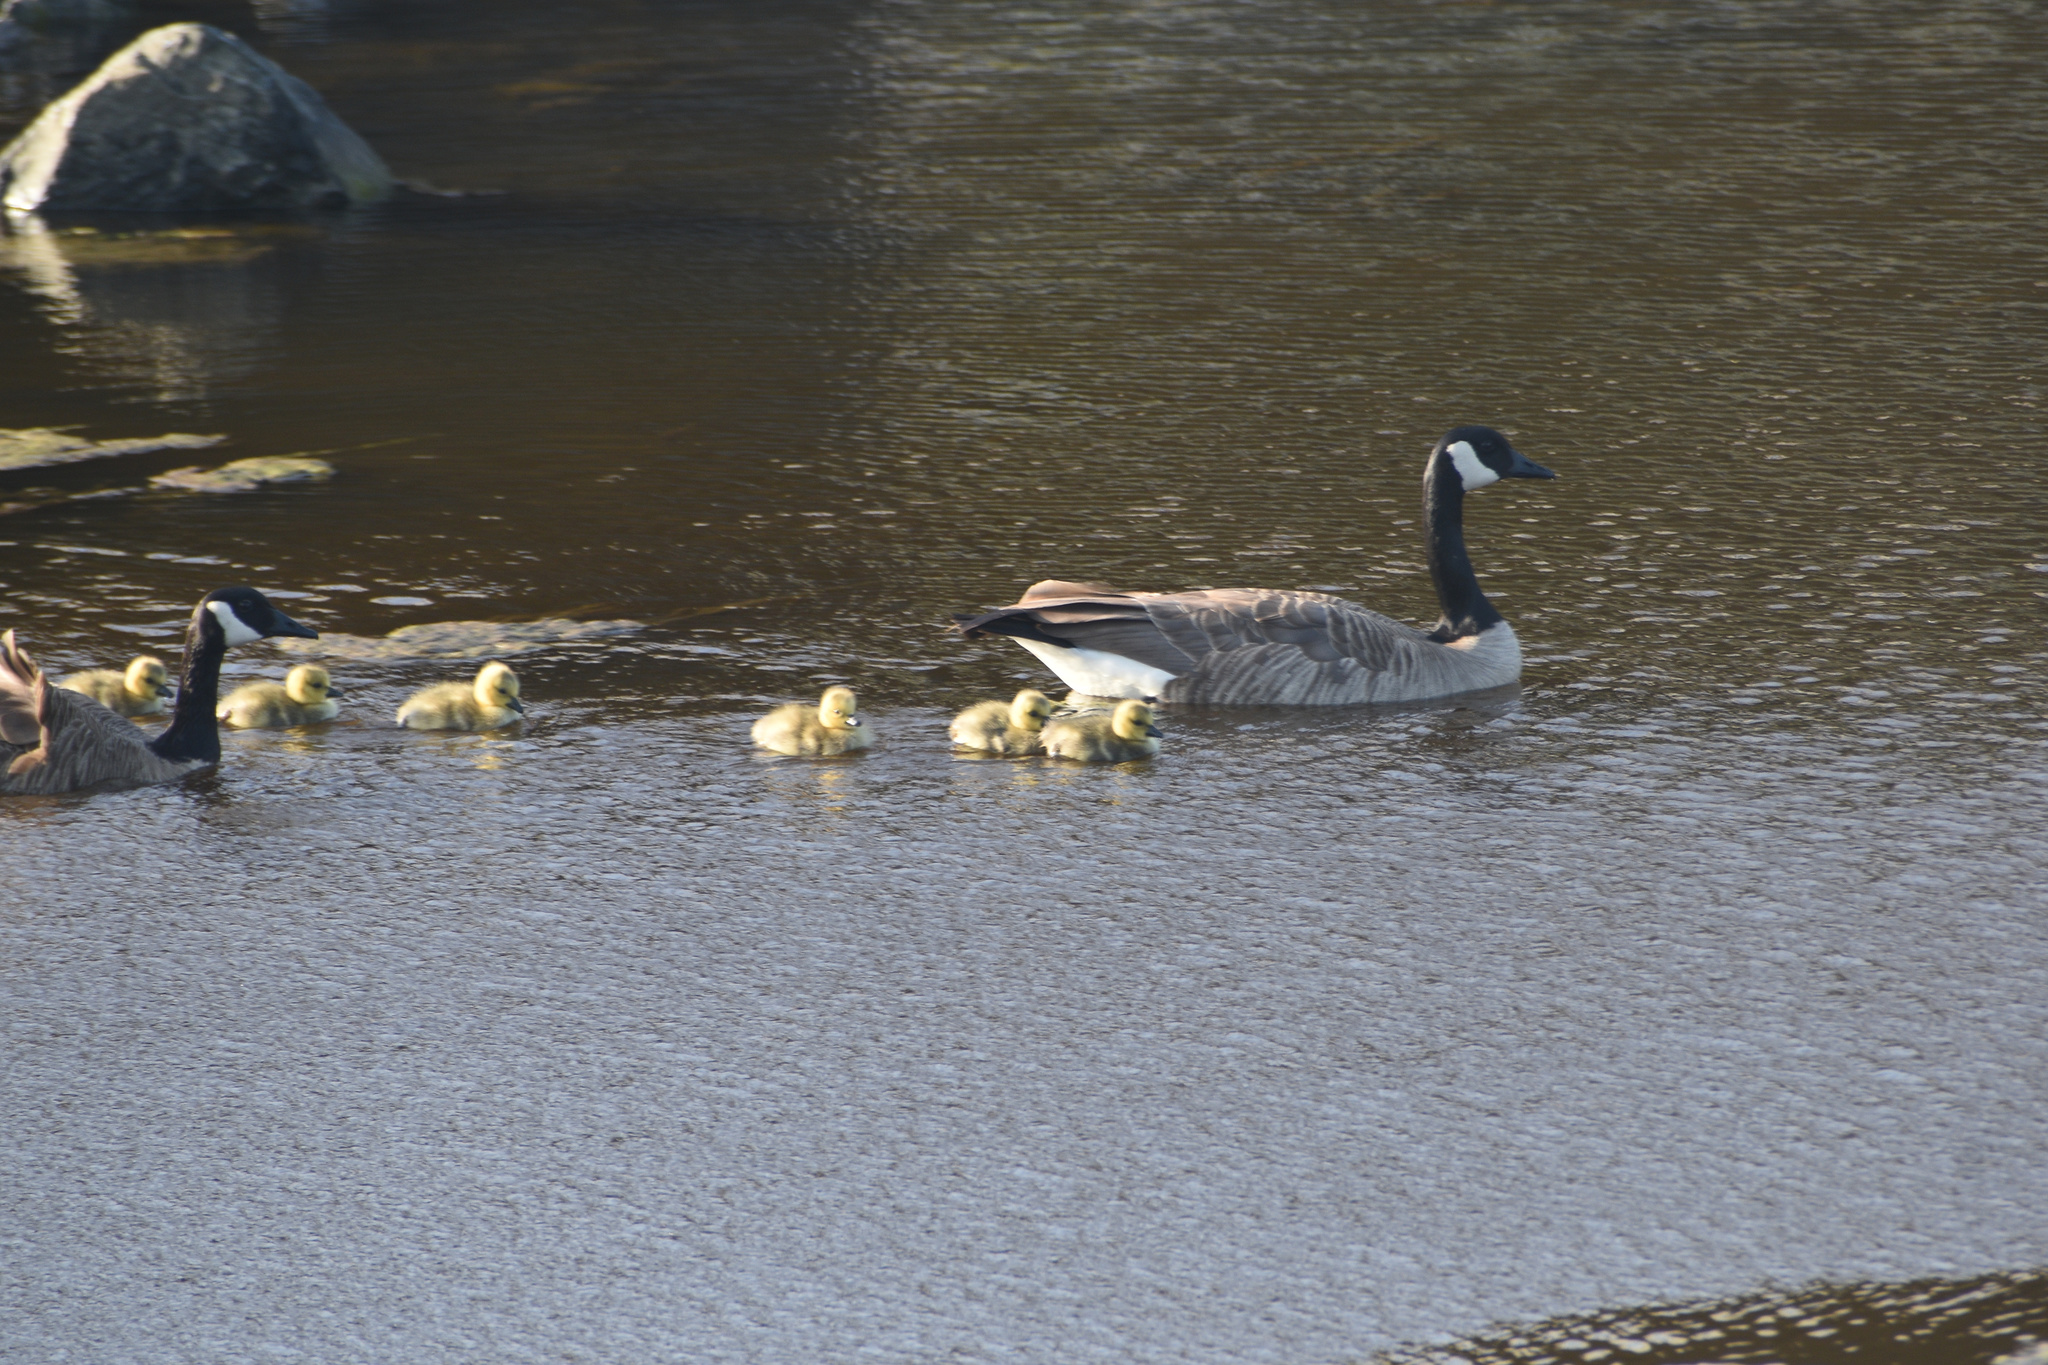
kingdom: Animalia
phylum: Chordata
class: Aves
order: Anseriformes
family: Anatidae
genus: Branta
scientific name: Branta canadensis
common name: Canada goose
